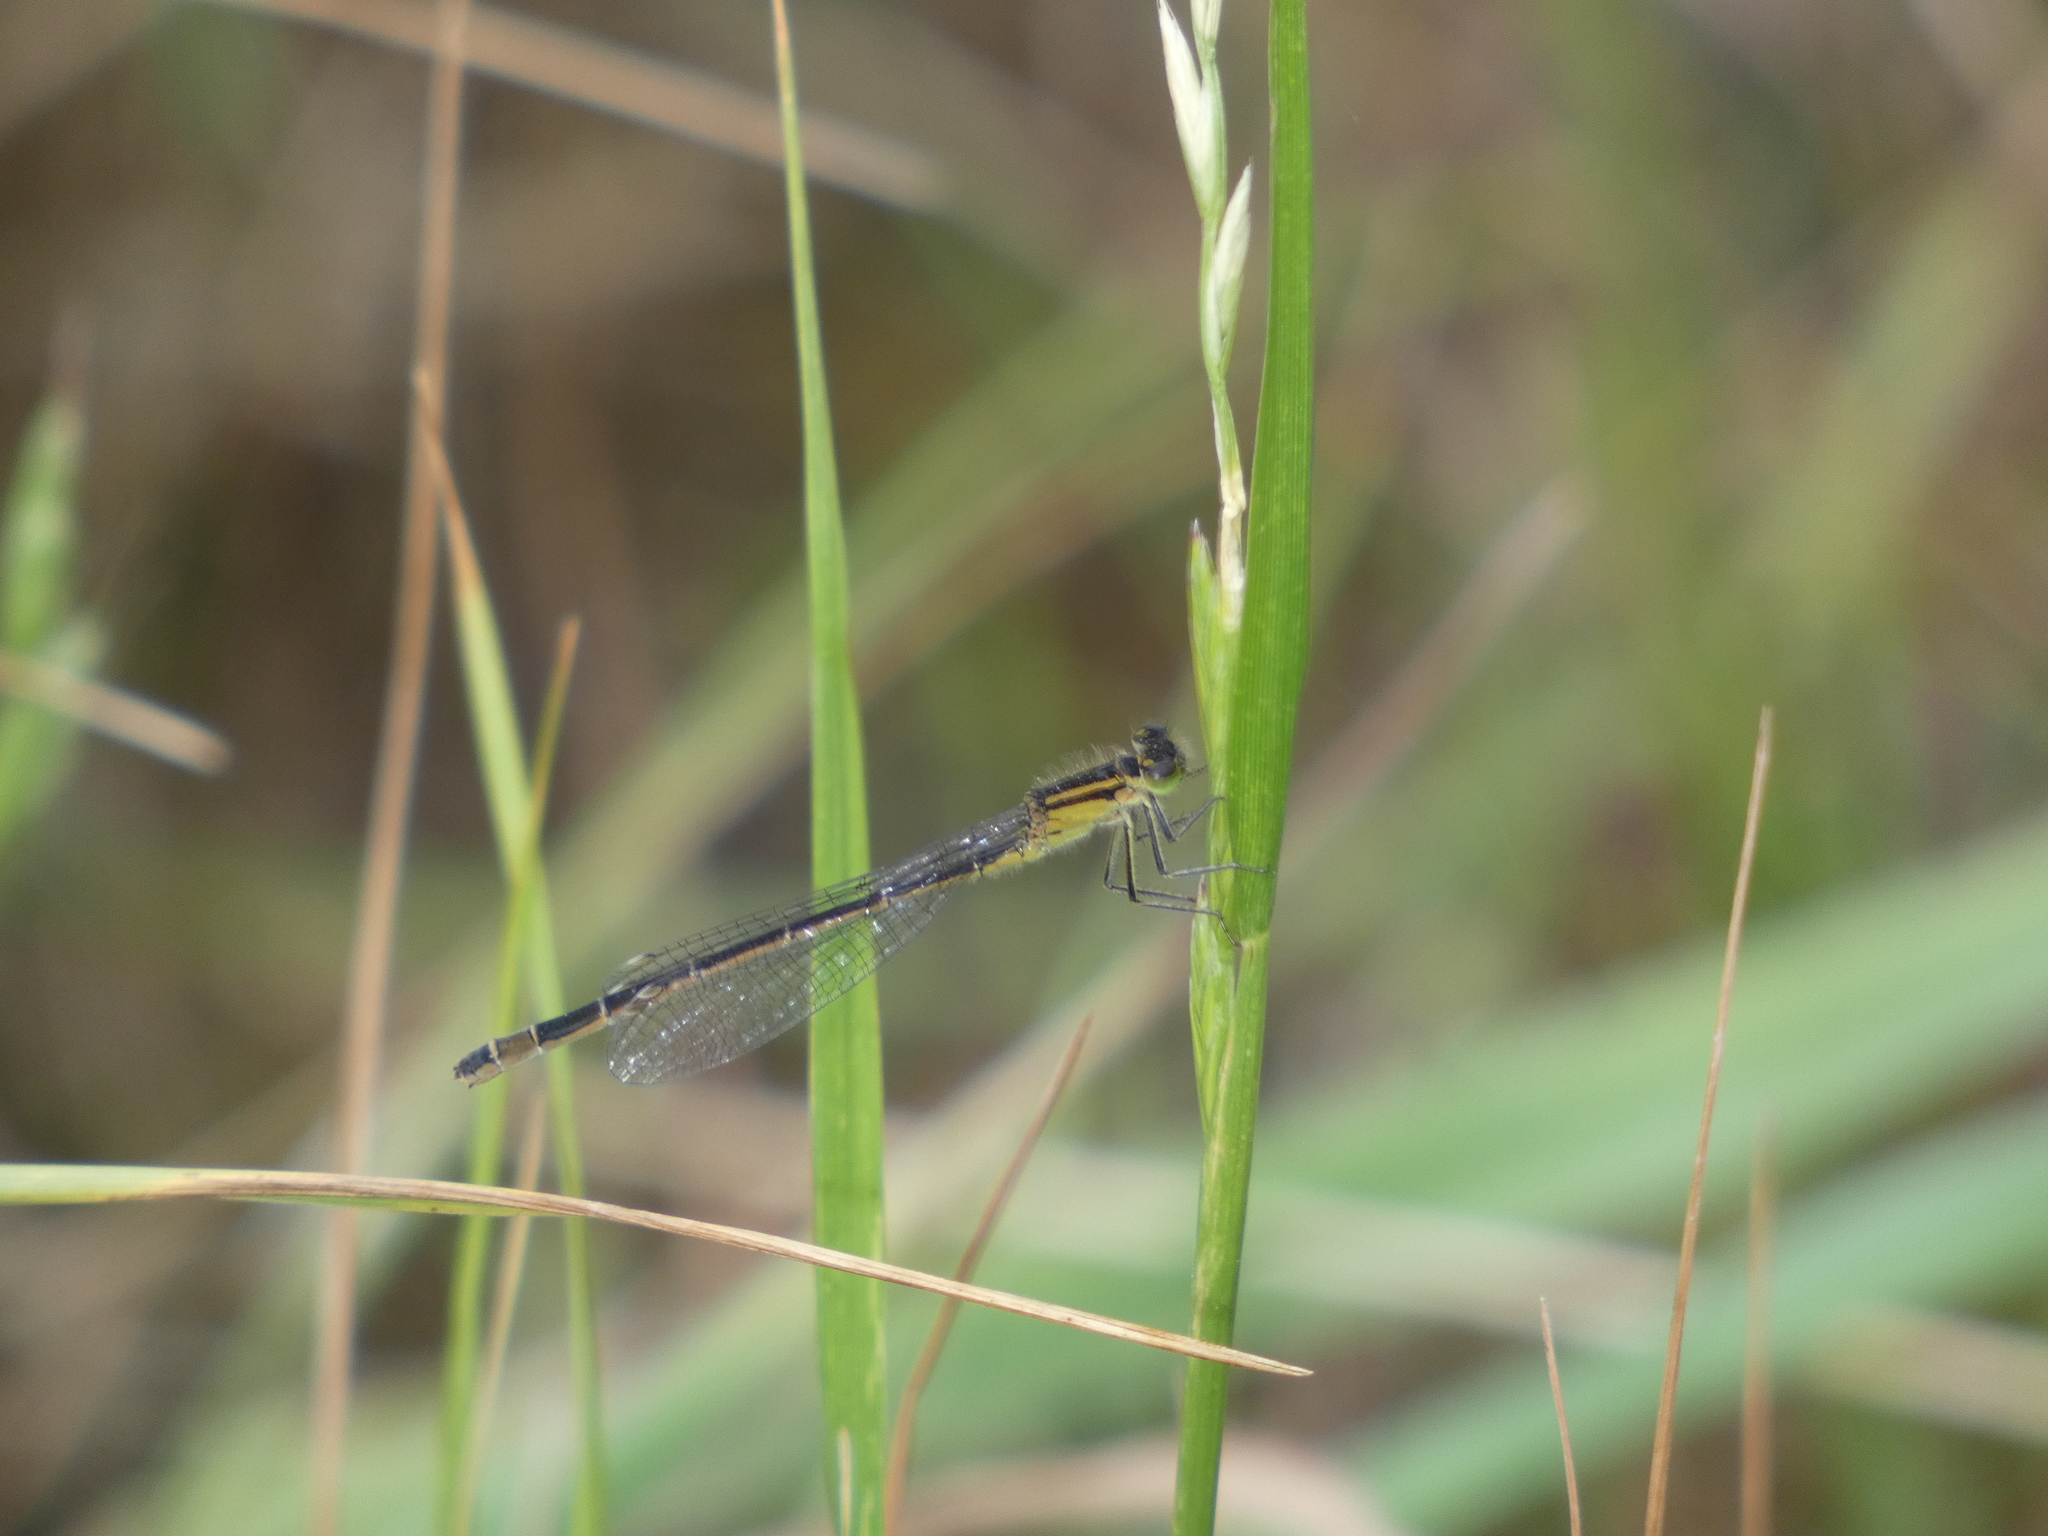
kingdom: Animalia
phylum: Arthropoda
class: Insecta
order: Odonata
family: Coenagrionidae
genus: Ischnura
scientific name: Ischnura elegans
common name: Blue-tailed damselfly
